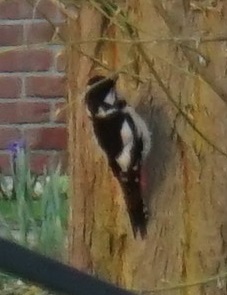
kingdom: Animalia
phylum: Chordata
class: Aves
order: Piciformes
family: Picidae
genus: Dendrocopos
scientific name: Dendrocopos major
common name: Great spotted woodpecker
